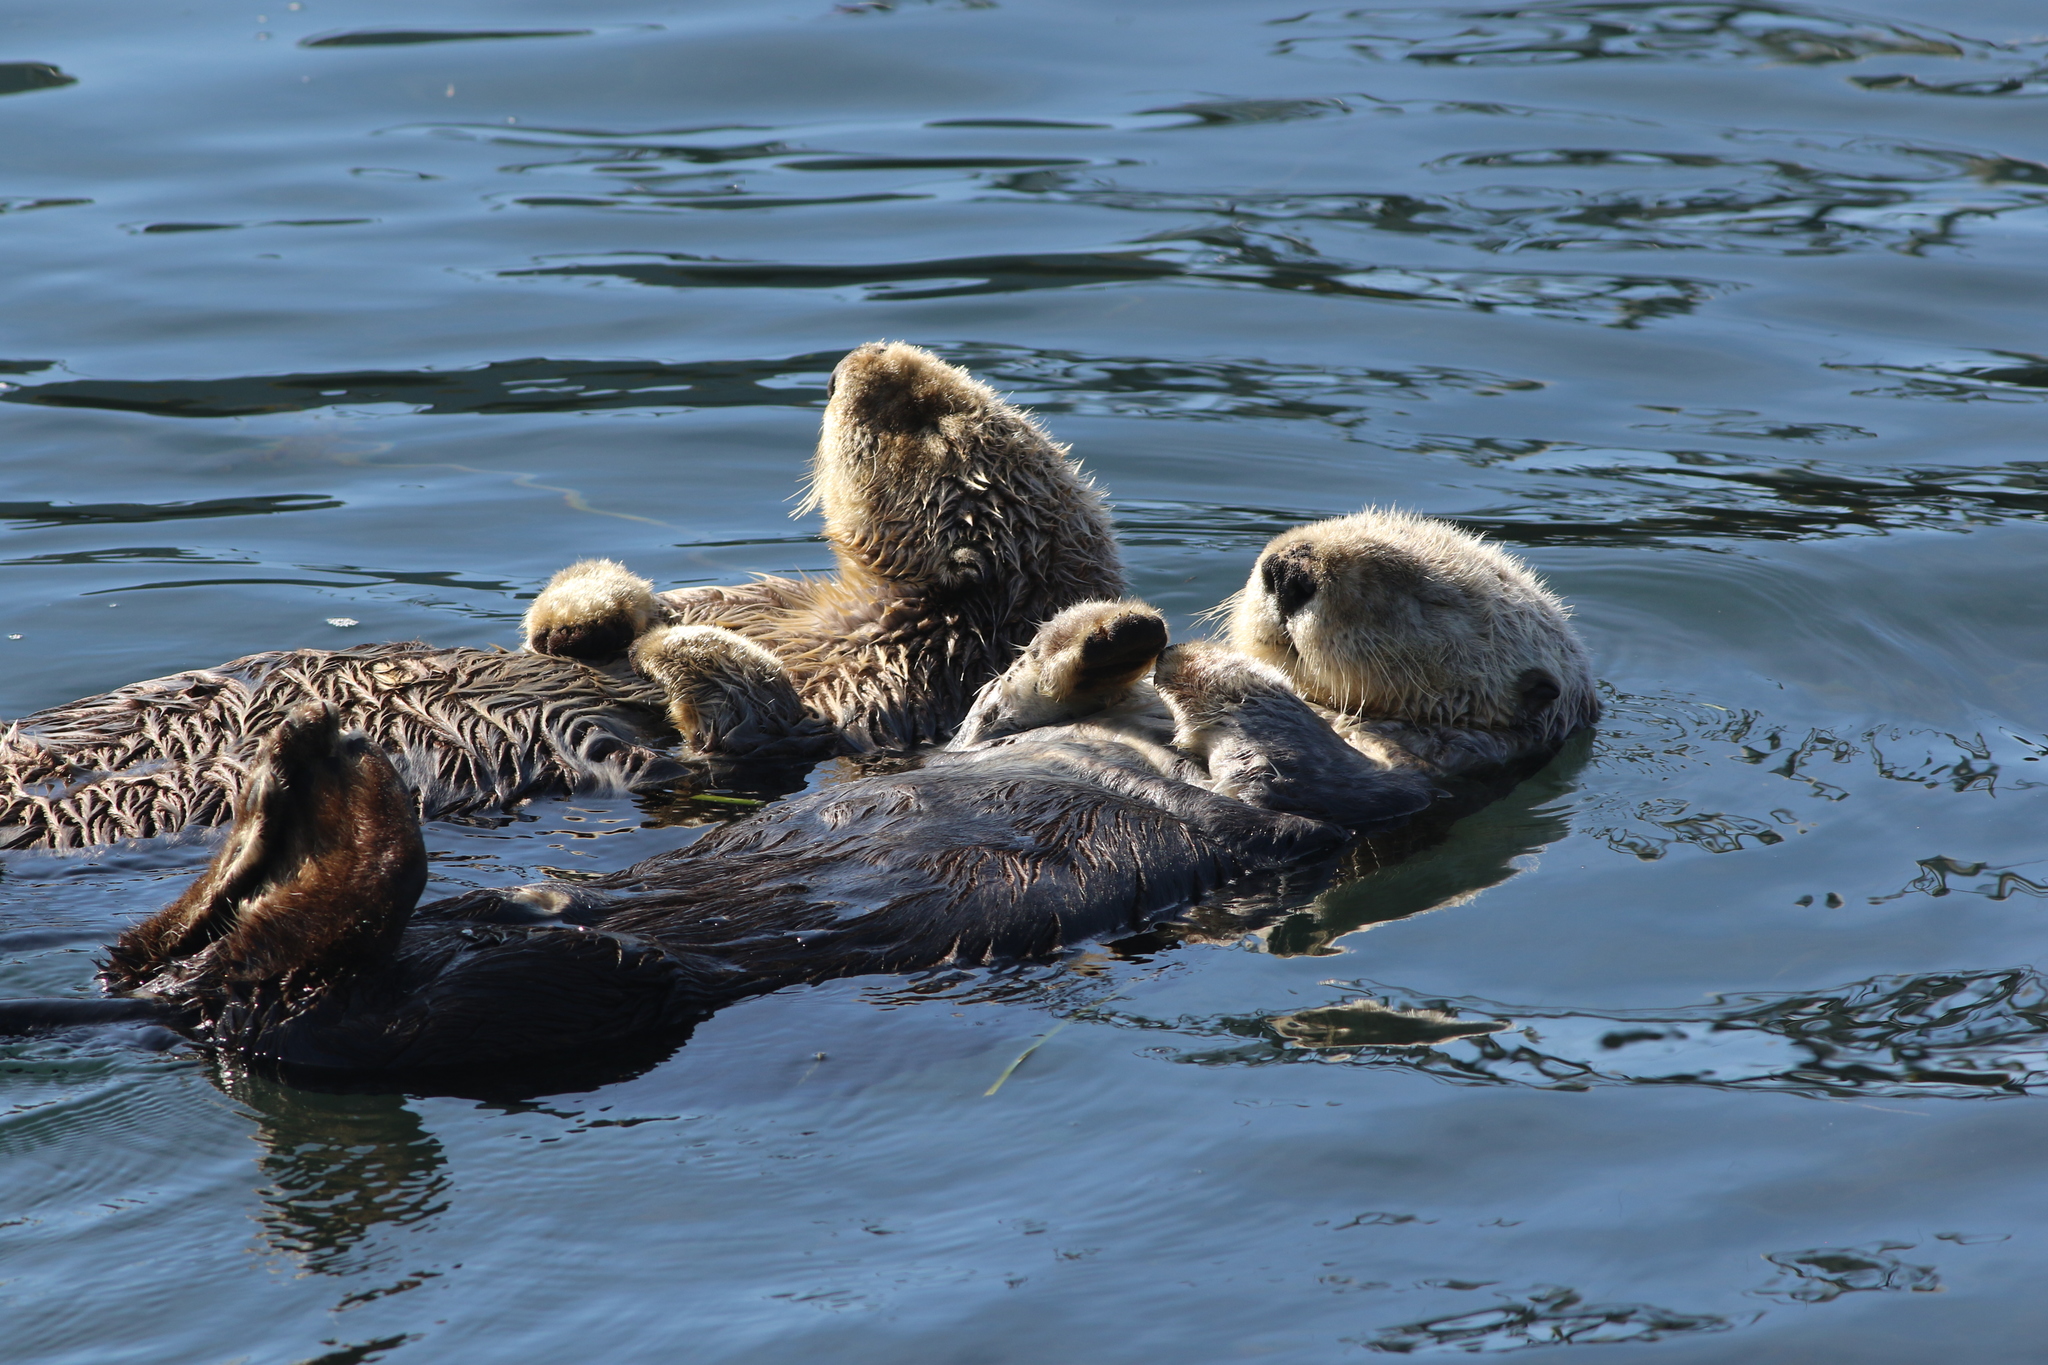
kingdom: Animalia
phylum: Chordata
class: Mammalia
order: Carnivora
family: Mustelidae
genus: Enhydra
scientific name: Enhydra lutris
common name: Sea otter
